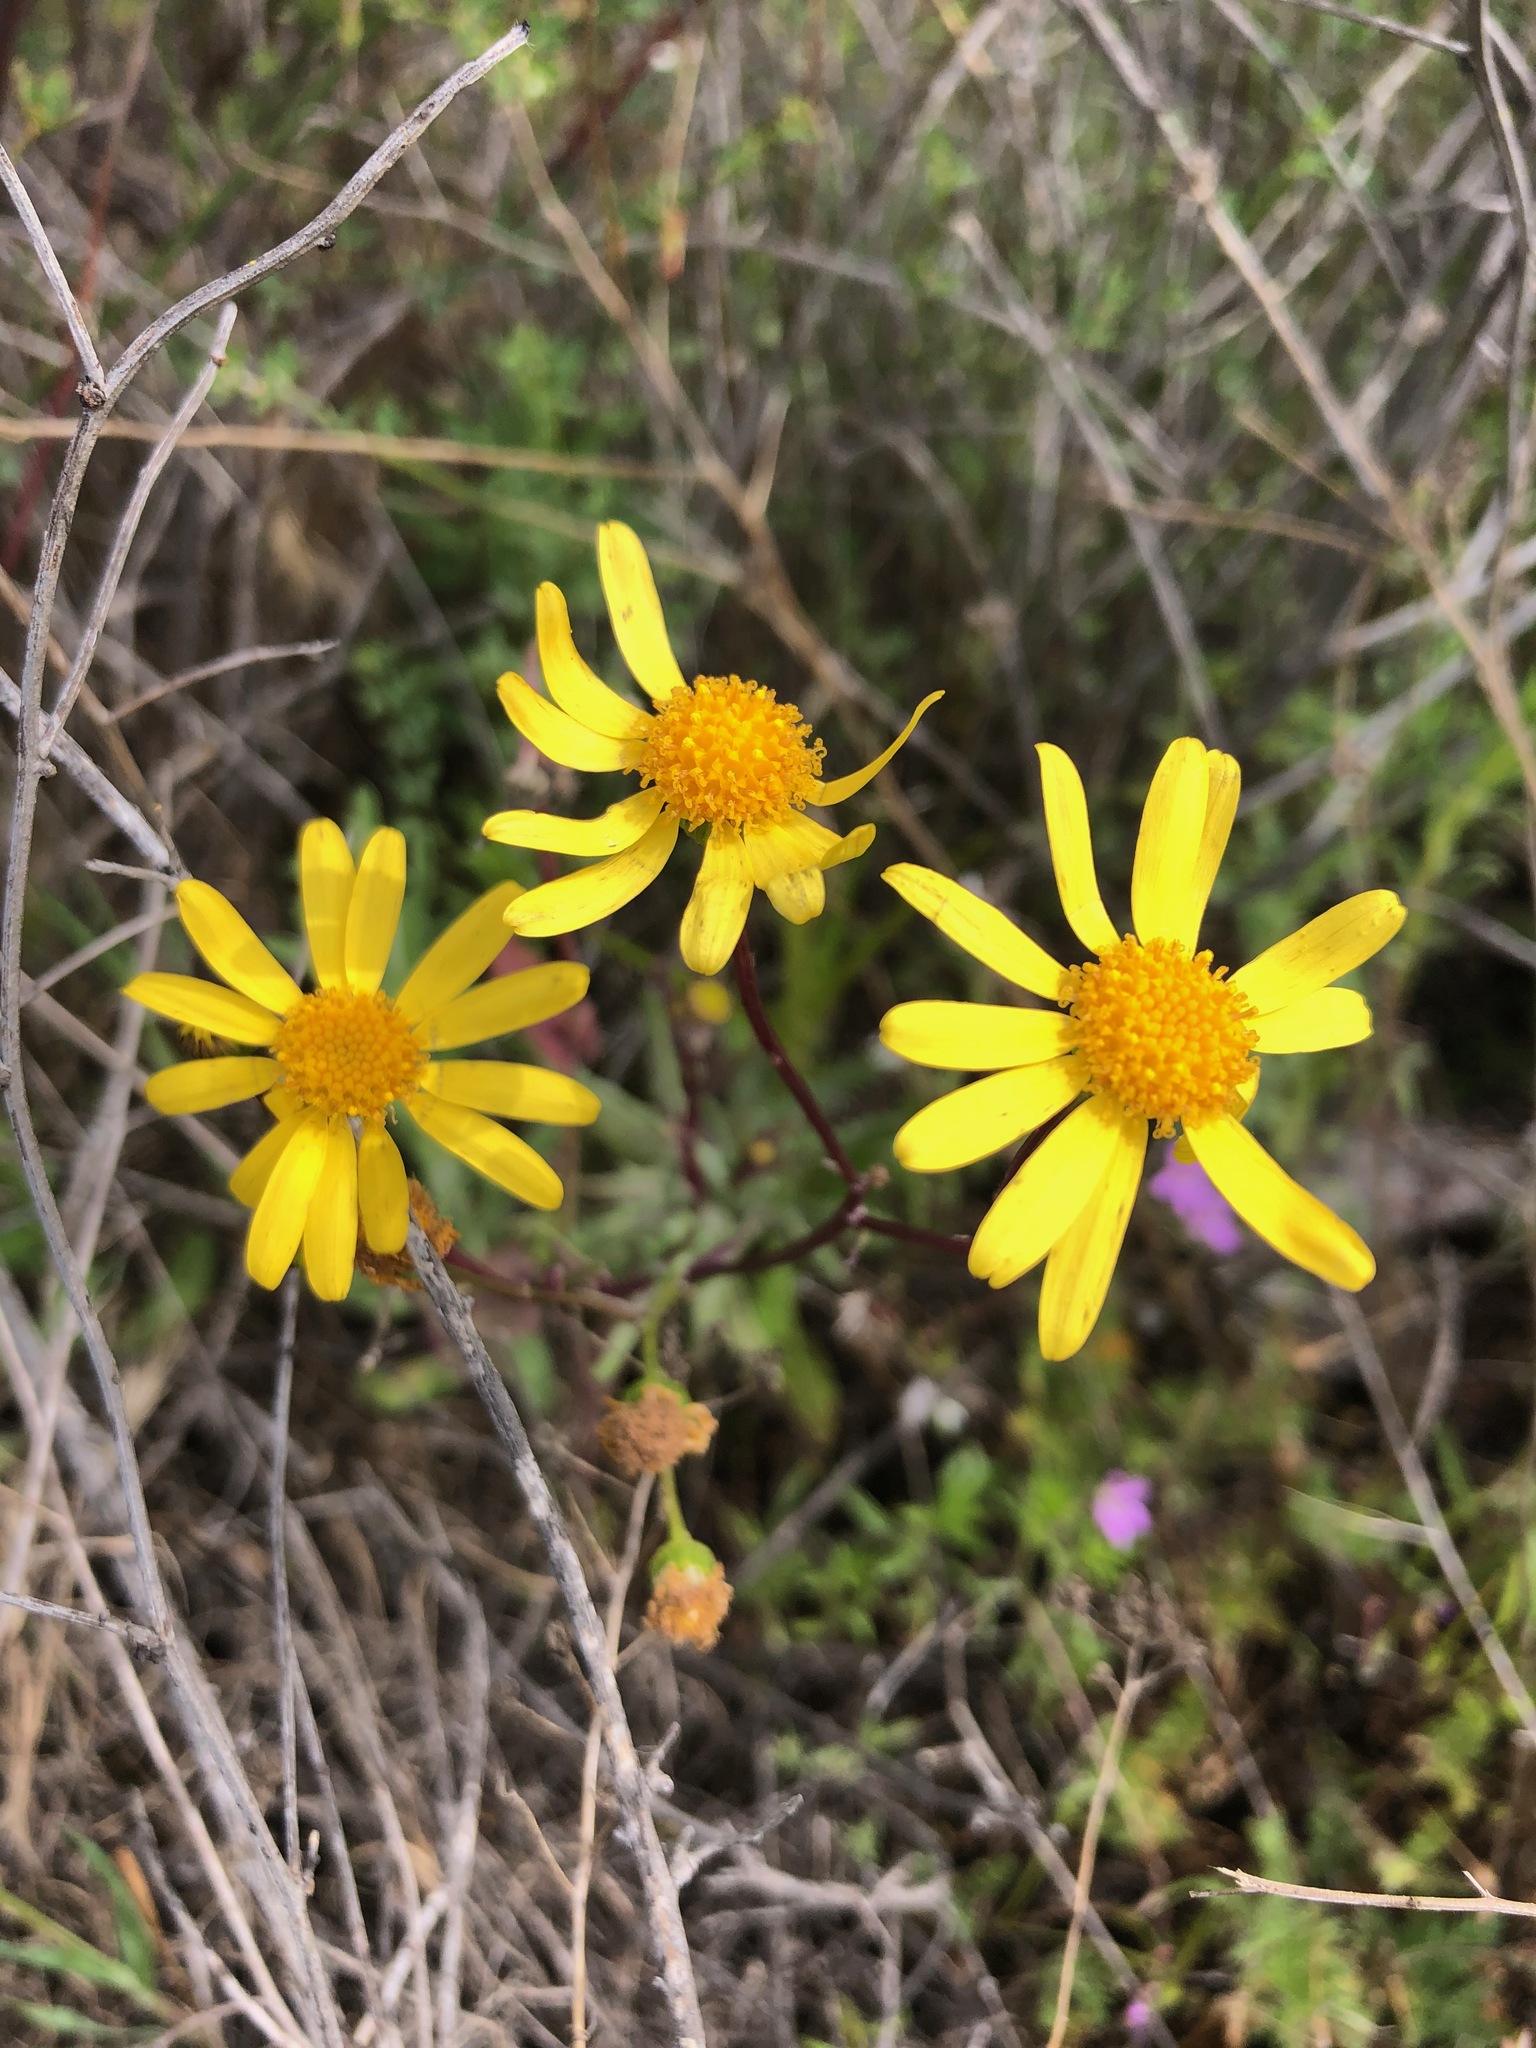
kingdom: Plantae
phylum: Tracheophyta
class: Magnoliopsida
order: Asterales
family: Asteraceae
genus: Senecio
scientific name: Senecio californicus
